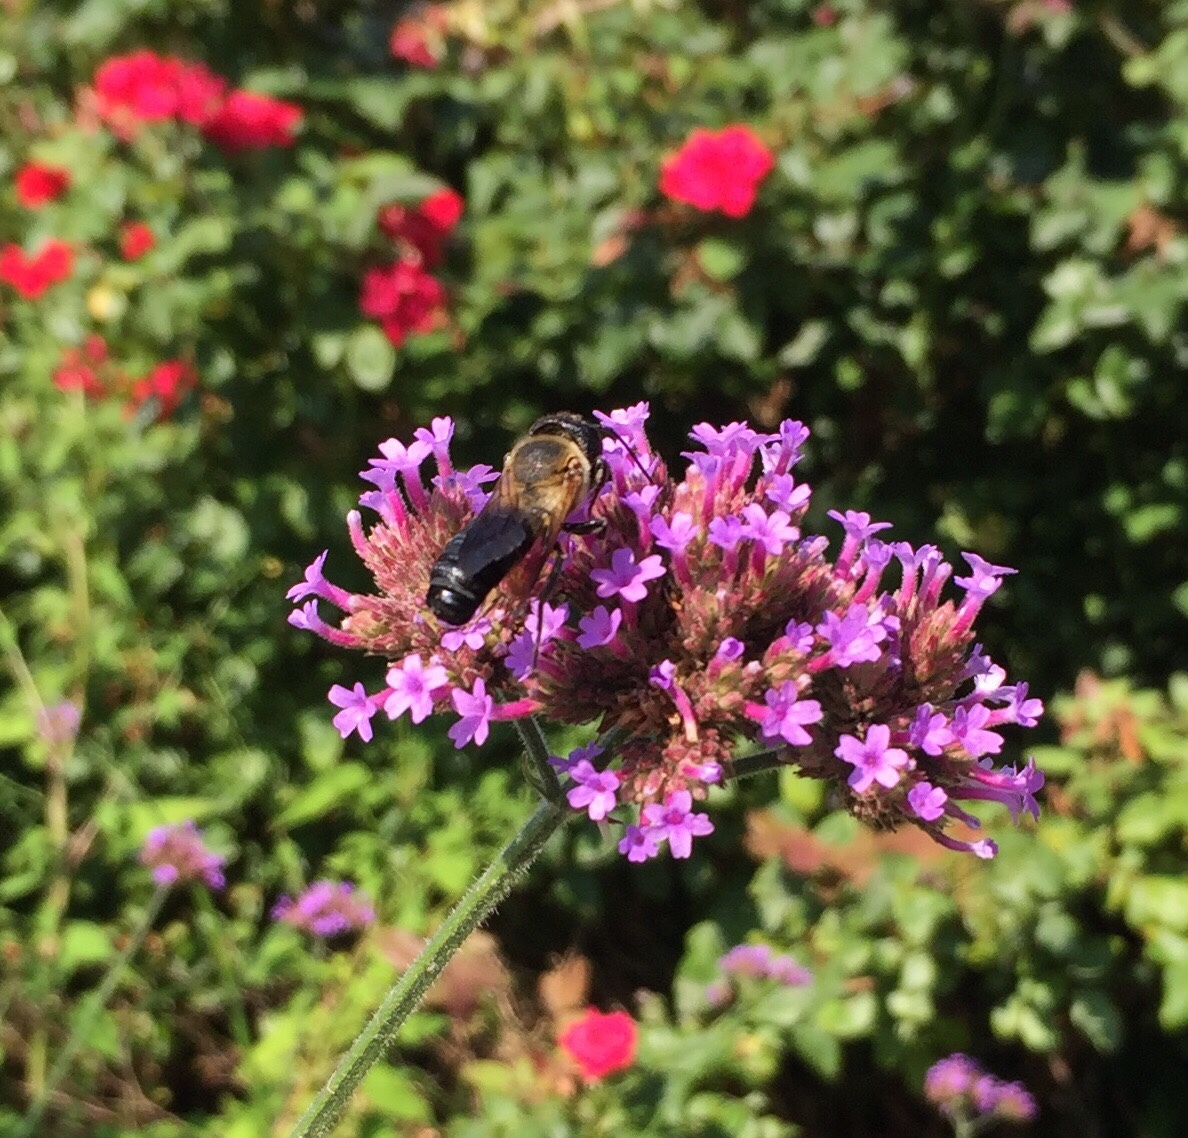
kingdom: Animalia
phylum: Arthropoda
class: Insecta
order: Hymenoptera
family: Megachilidae
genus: Megachile
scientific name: Megachile sculpturalis
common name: Sculptured resin bee
